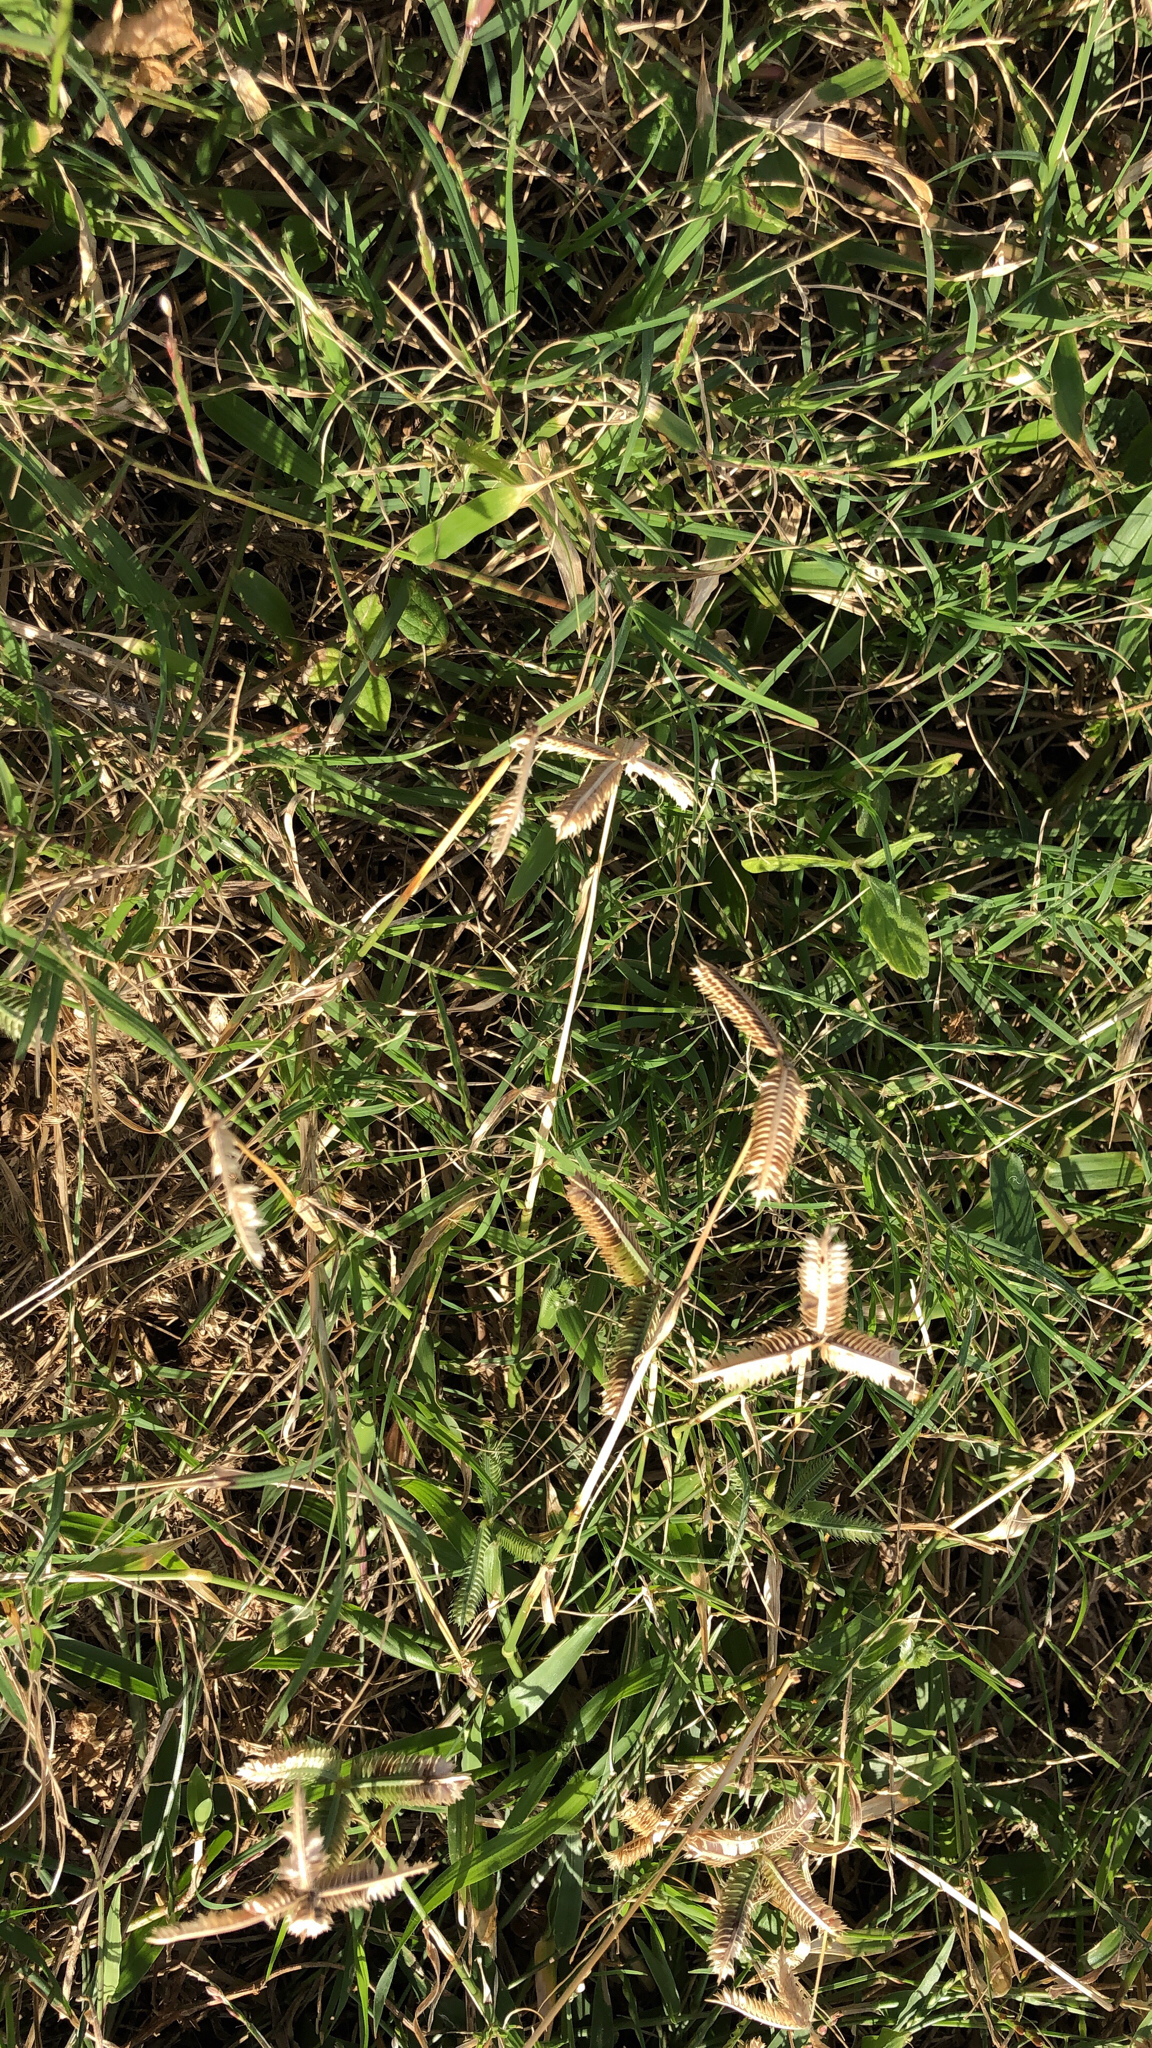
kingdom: Plantae
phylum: Tracheophyta
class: Liliopsida
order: Poales
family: Poaceae
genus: Dactyloctenium
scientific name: Dactyloctenium aegyptium
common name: Egyptian grass
